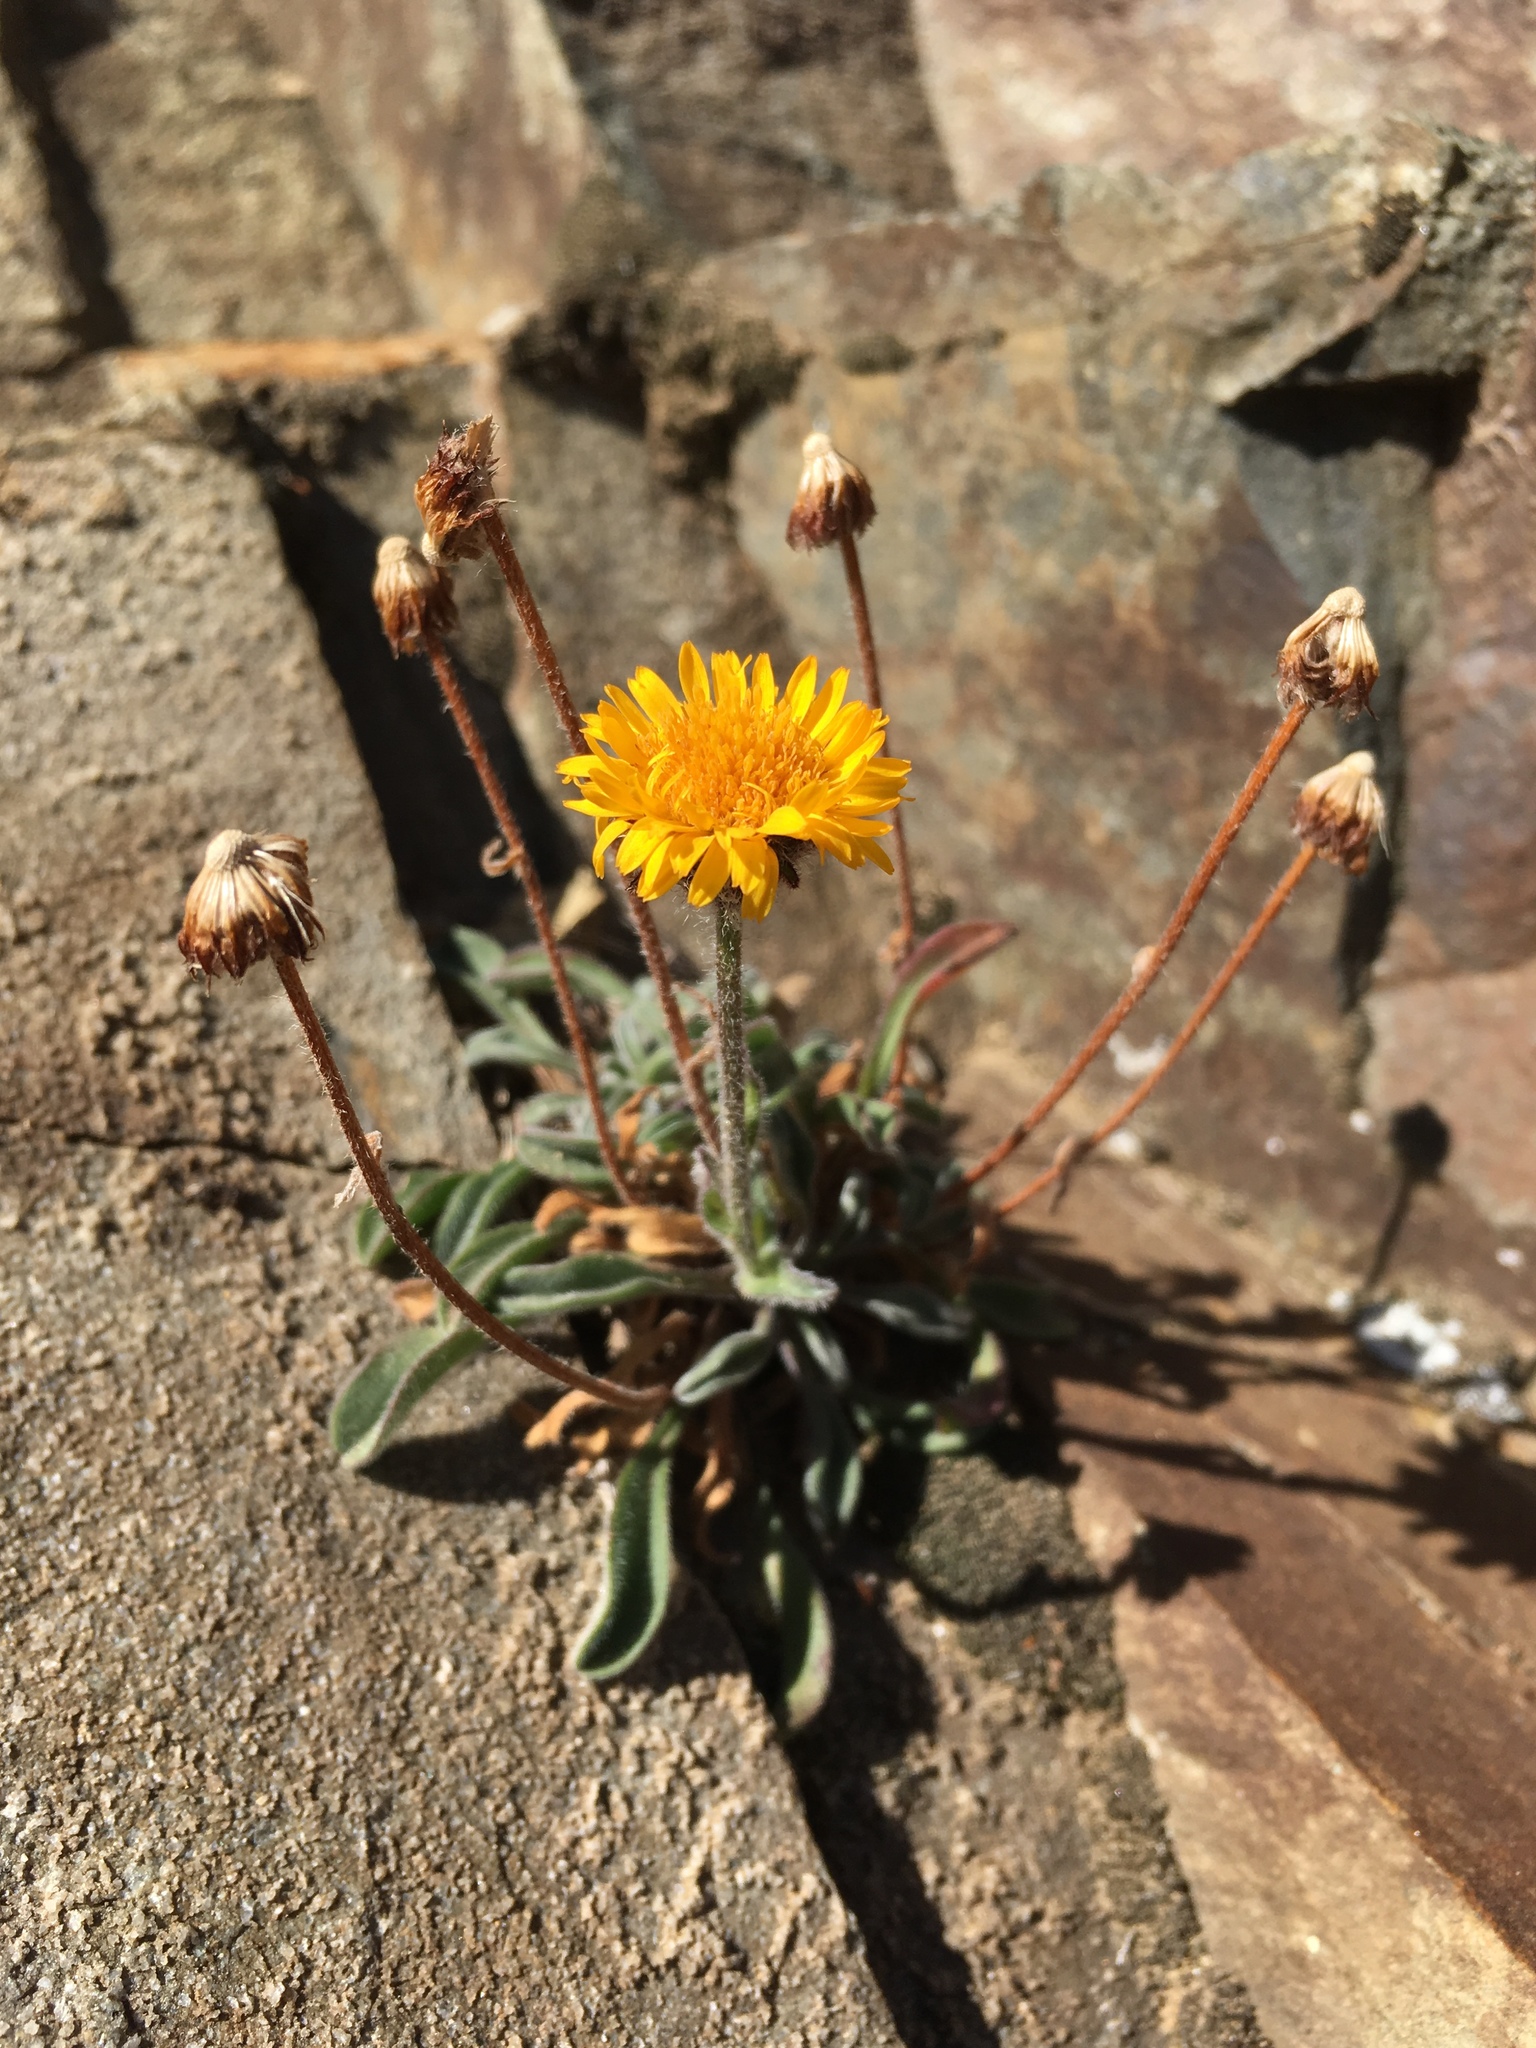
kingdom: Plantae
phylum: Tracheophyta
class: Magnoliopsida
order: Asterales
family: Asteraceae
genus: Erigeron
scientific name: Erigeron aureus
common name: Alpine yellow fleabane
